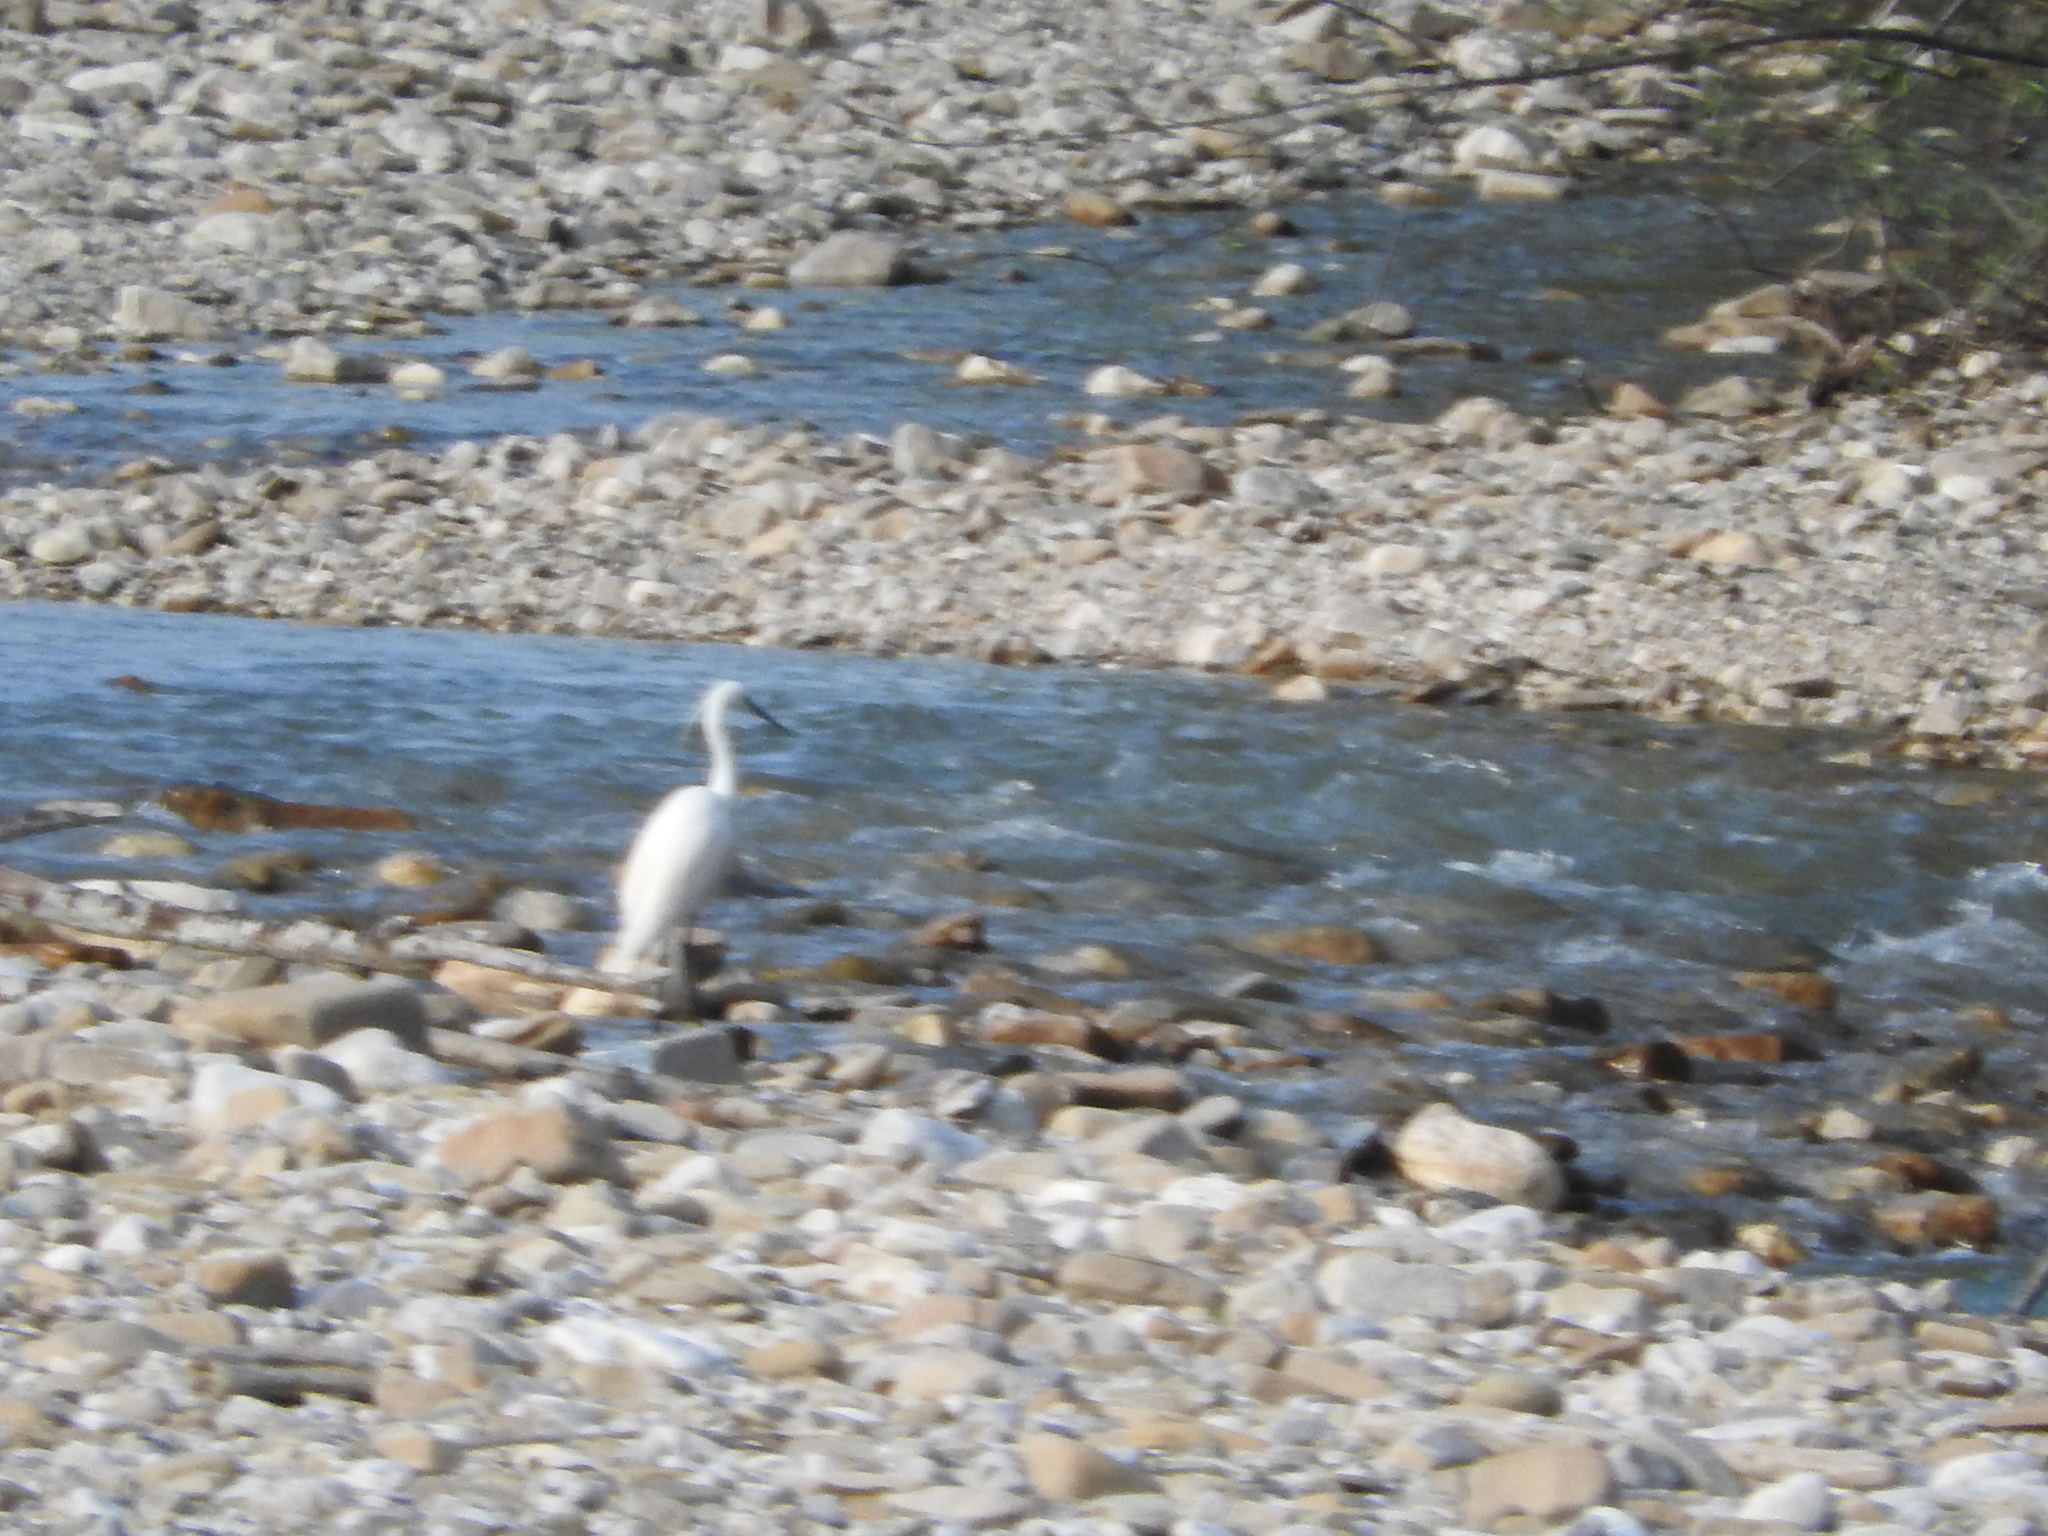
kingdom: Animalia
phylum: Chordata
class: Aves
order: Pelecaniformes
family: Ardeidae
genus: Egretta
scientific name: Egretta garzetta
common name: Little egret
